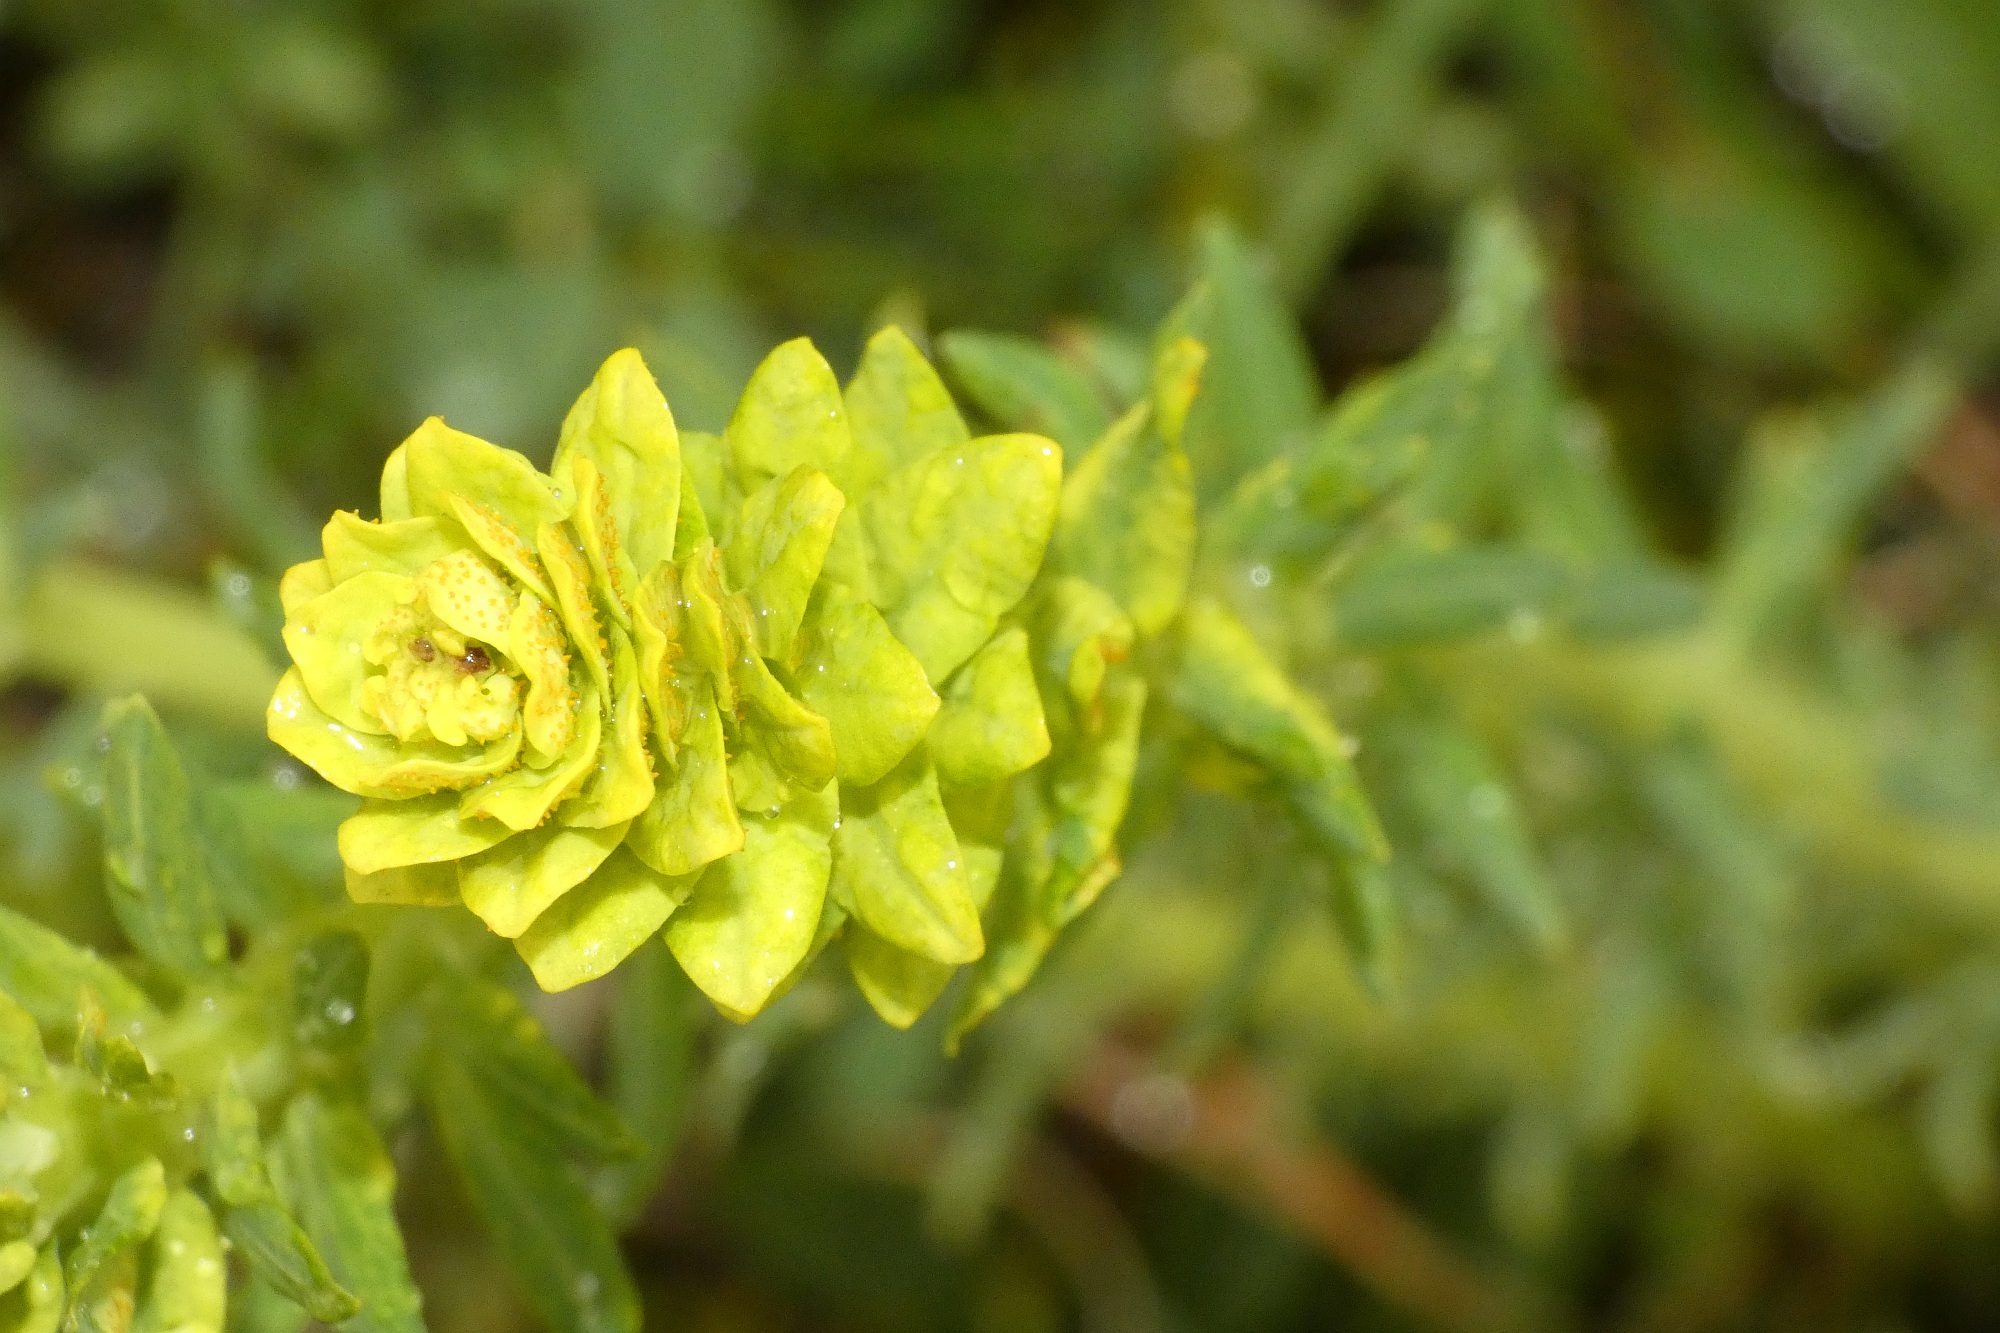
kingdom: Plantae
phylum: Tracheophyta
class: Magnoliopsida
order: Malpighiales
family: Euphorbiaceae
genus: Euphorbia
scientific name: Euphorbia cyparissias
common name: Cypress spurge
